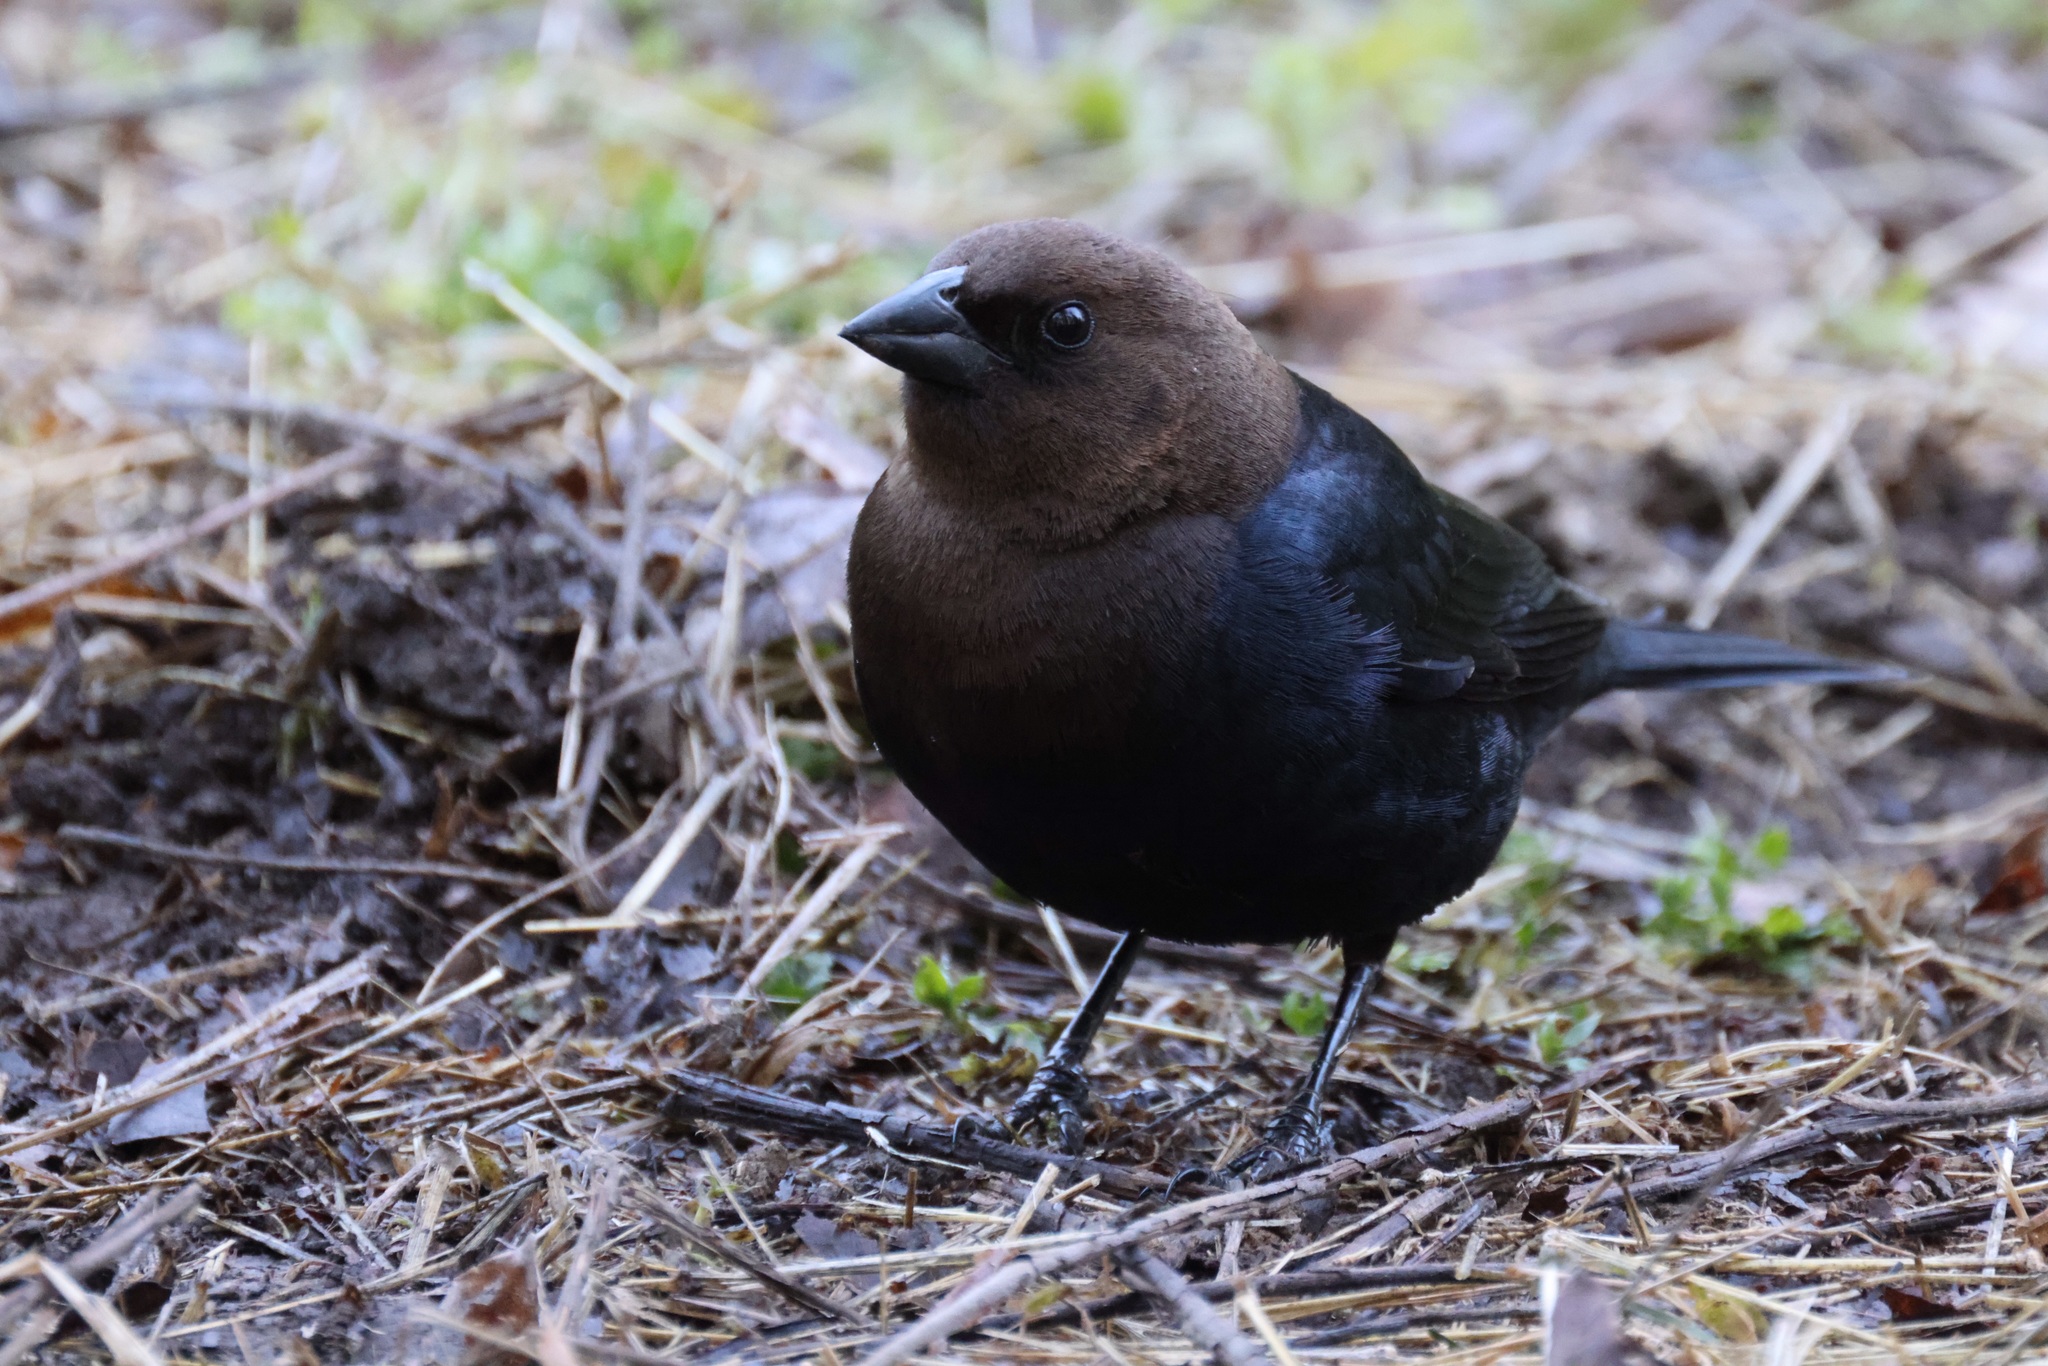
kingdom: Animalia
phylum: Chordata
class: Aves
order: Passeriformes
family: Icteridae
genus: Molothrus
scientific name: Molothrus ater
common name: Brown-headed cowbird
